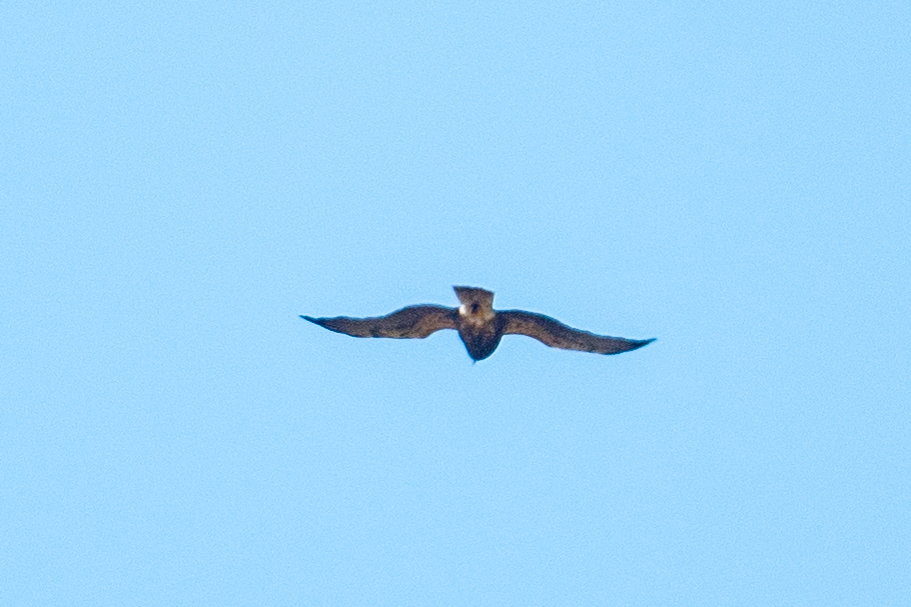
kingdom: Animalia
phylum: Chordata
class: Aves
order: Accipitriformes
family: Accipitridae
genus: Buteo
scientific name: Buteo swainsoni
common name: Swainson's hawk
